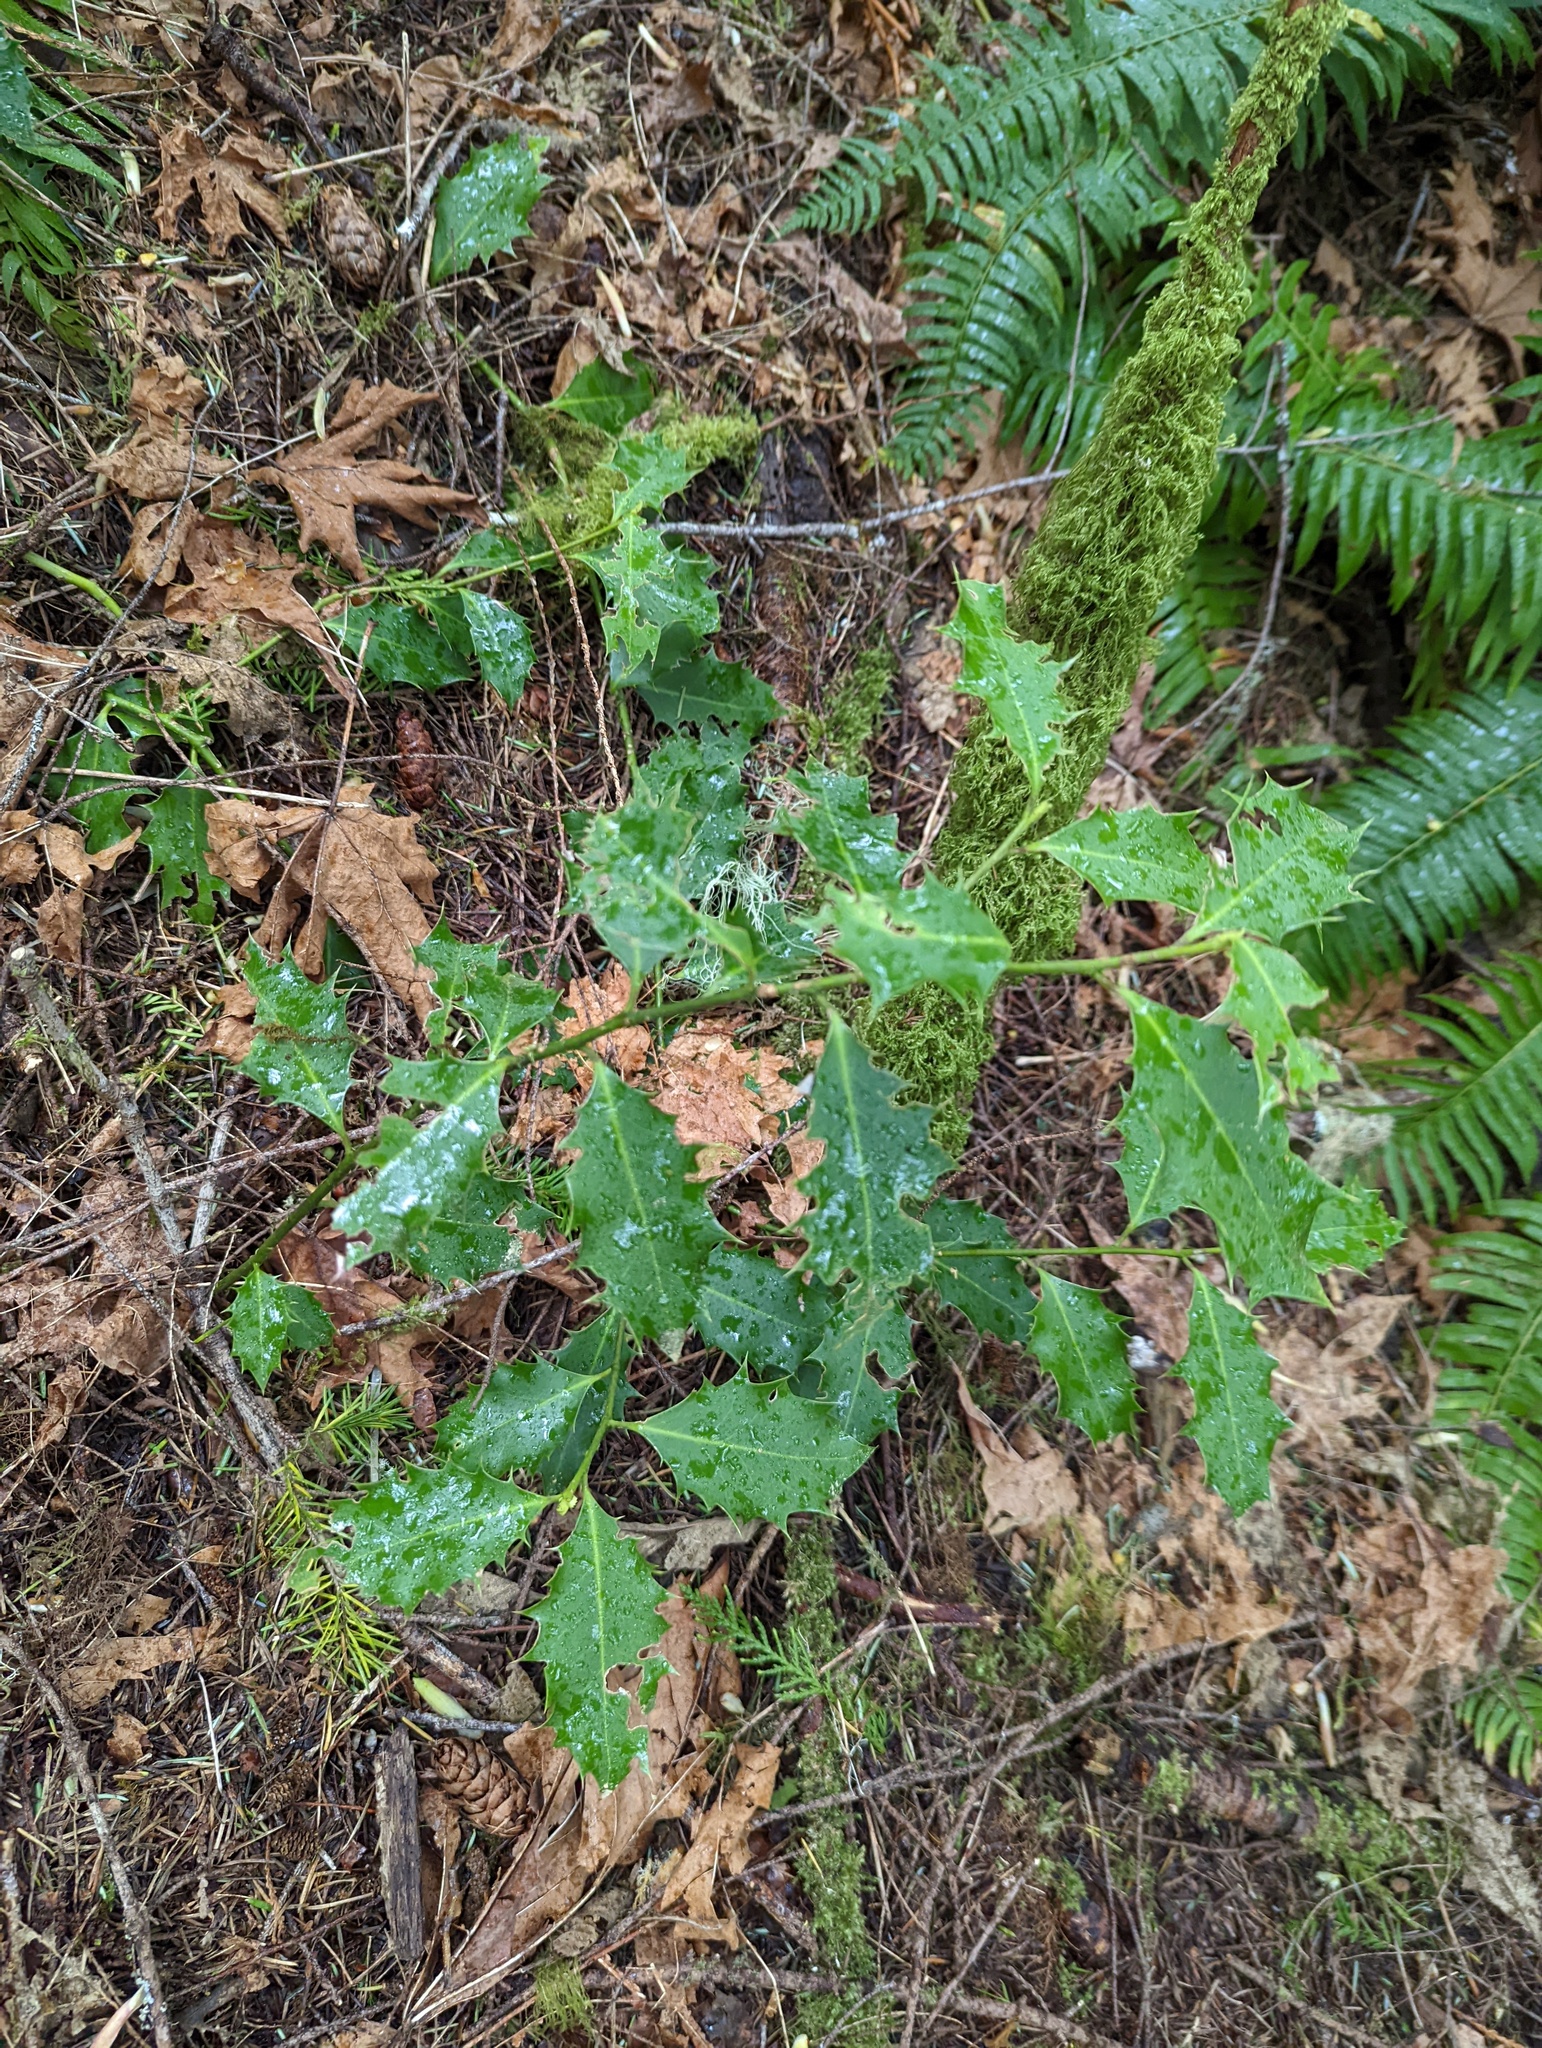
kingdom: Plantae
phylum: Tracheophyta
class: Magnoliopsida
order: Aquifoliales
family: Aquifoliaceae
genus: Ilex
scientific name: Ilex aquifolium
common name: English holly
